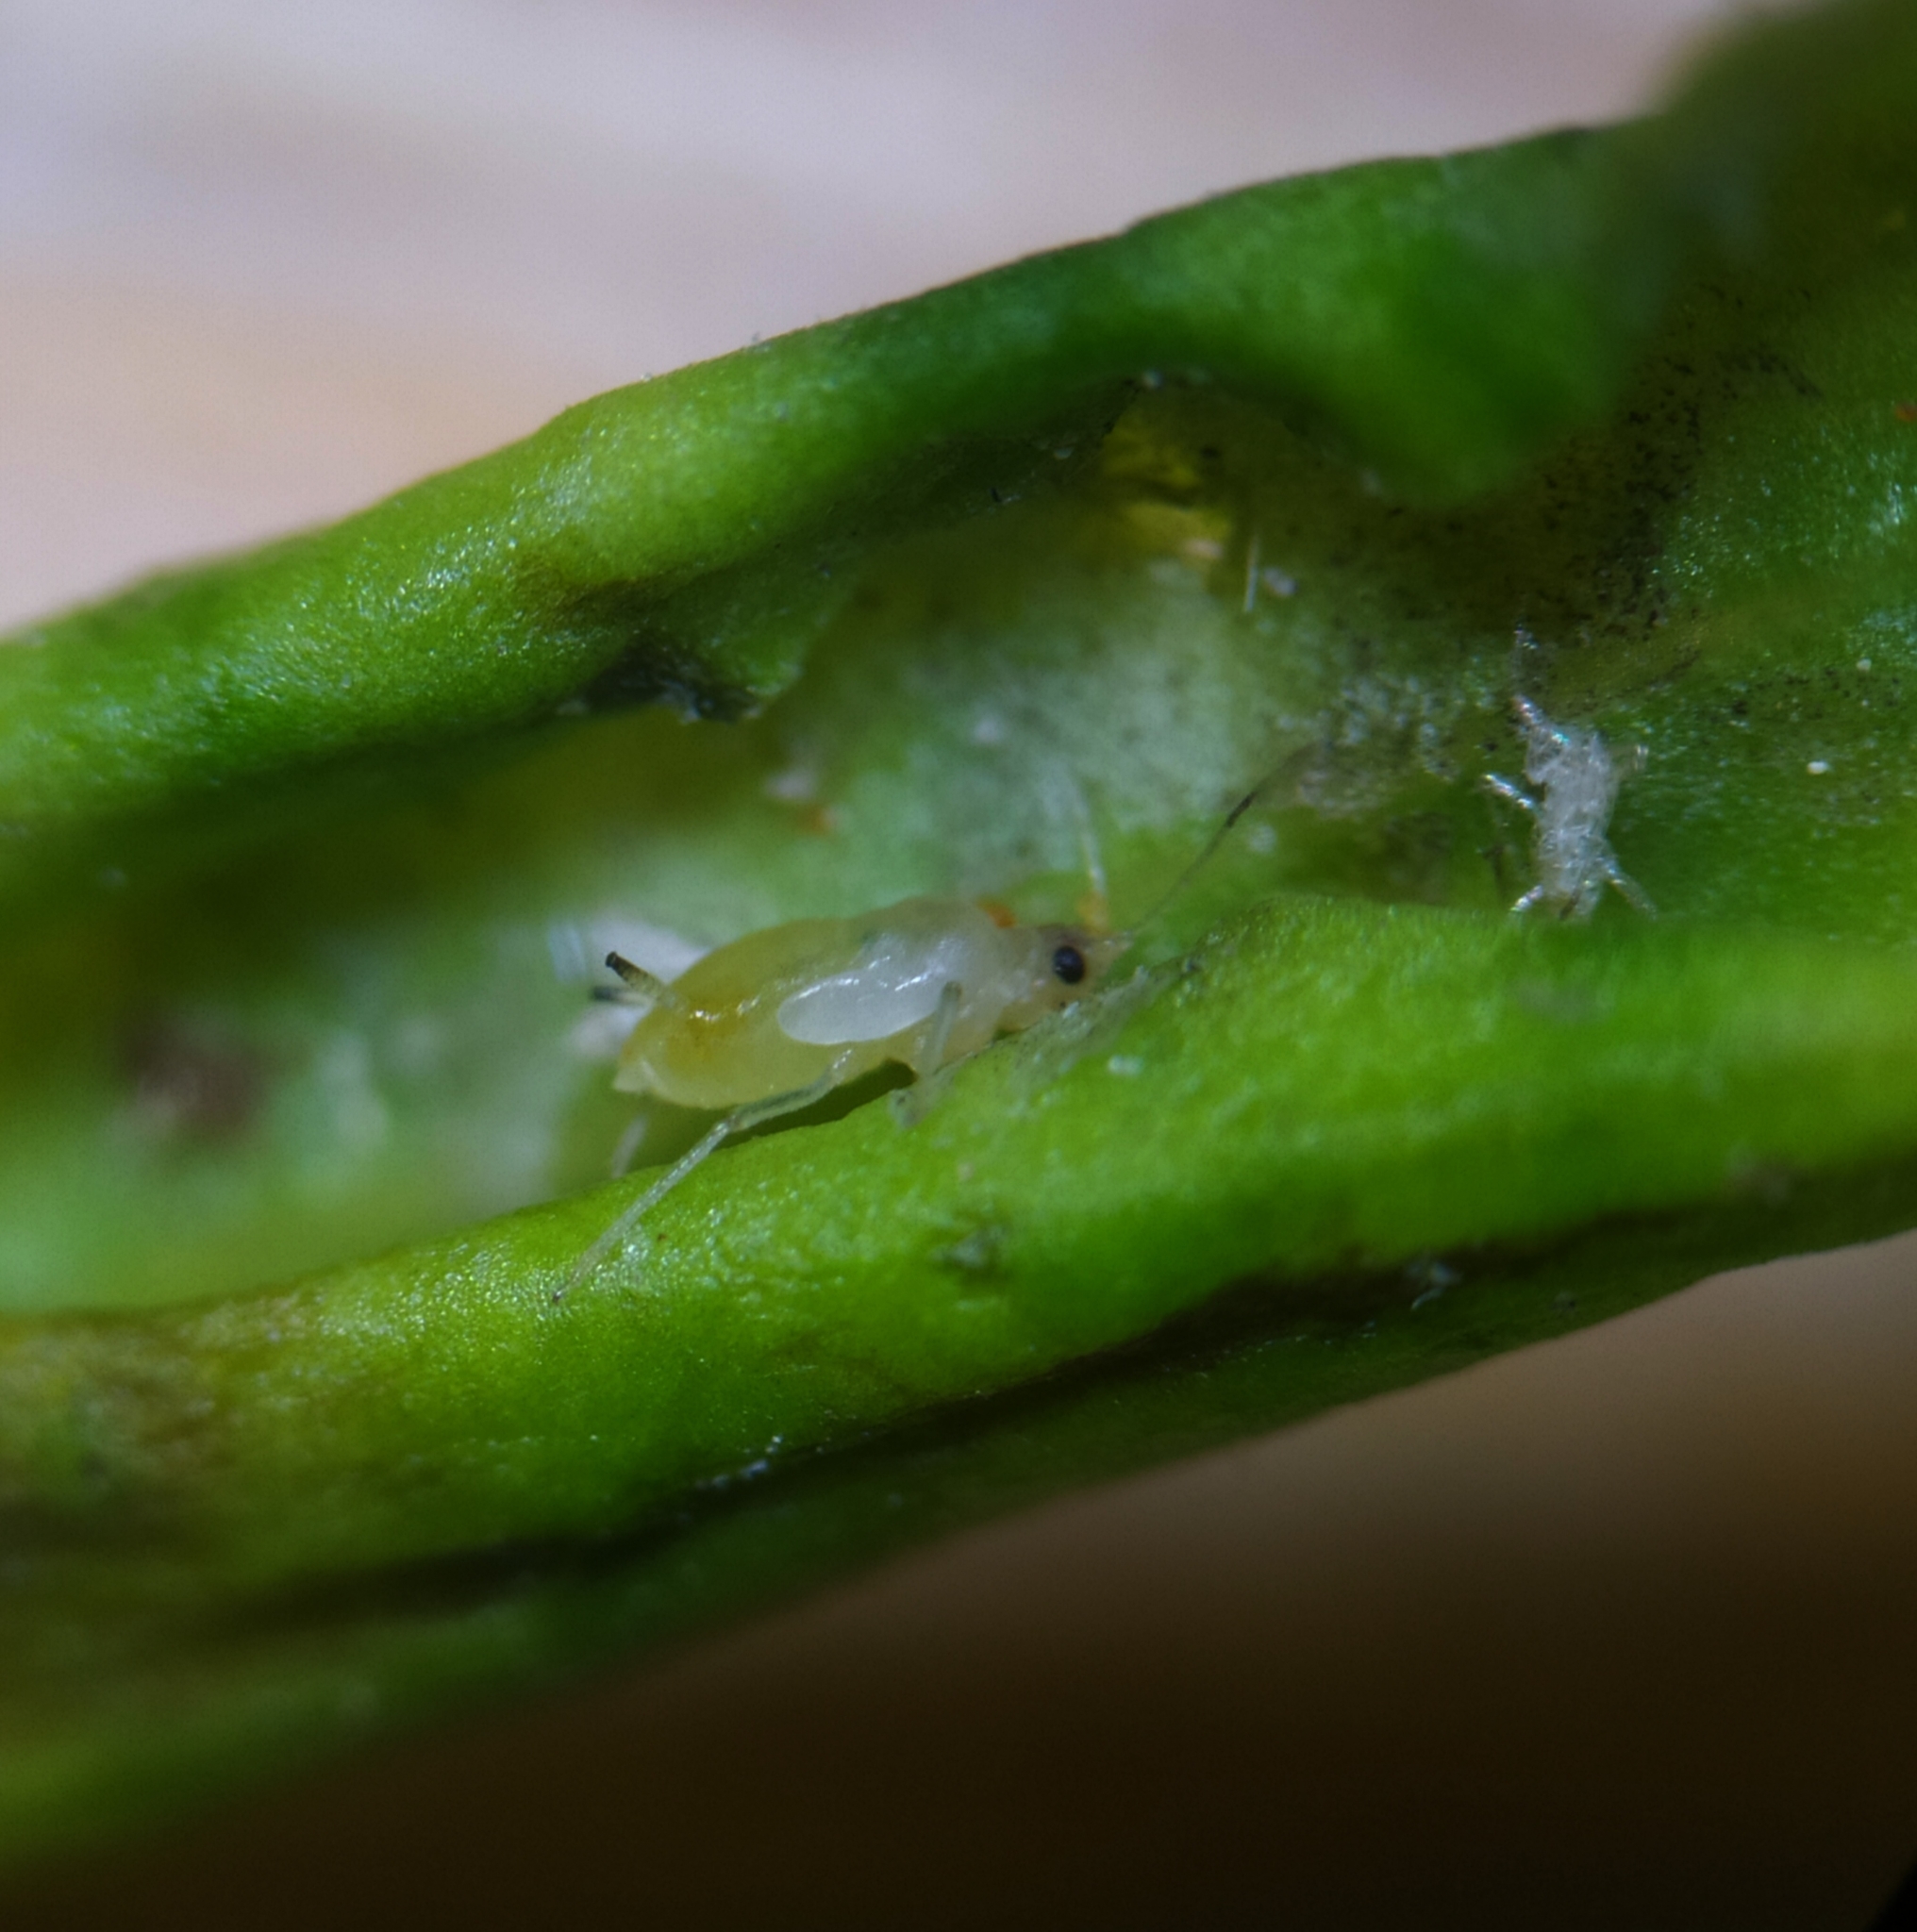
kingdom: Animalia
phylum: Arthropoda
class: Insecta
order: Hemiptera
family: Aphididae
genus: Myzus
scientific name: Myzus ligustri
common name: Privet aphid
